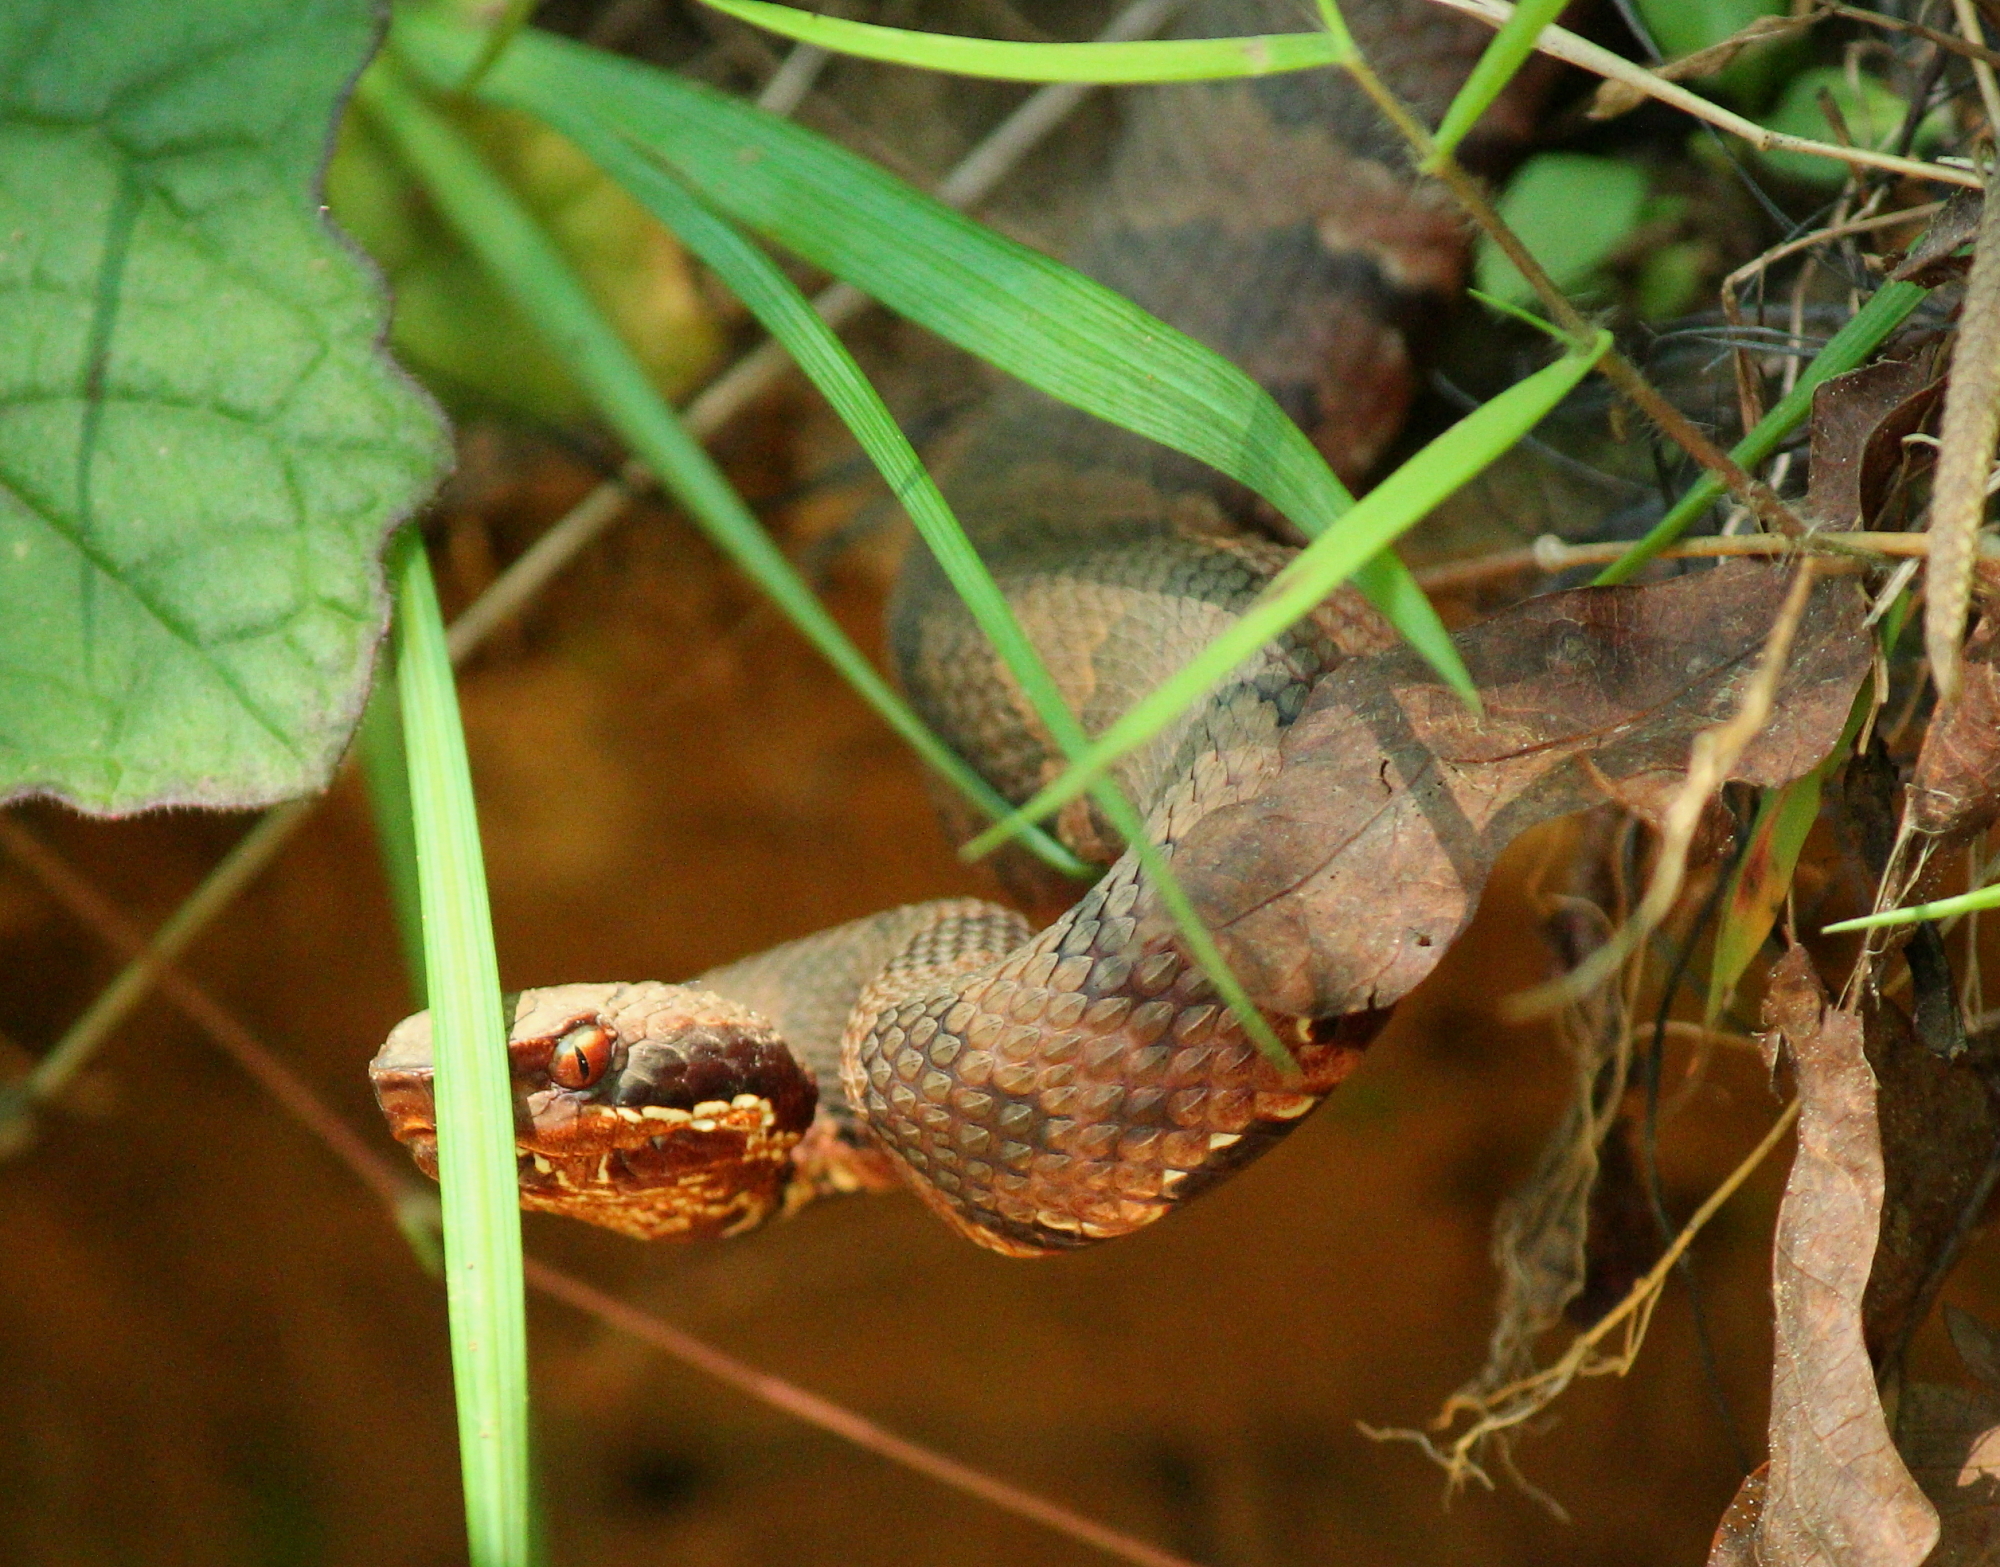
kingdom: Animalia
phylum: Chordata
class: Squamata
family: Viperidae
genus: Agkistrodon
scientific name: Agkistrodon piscivorus
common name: Cottonmouth
